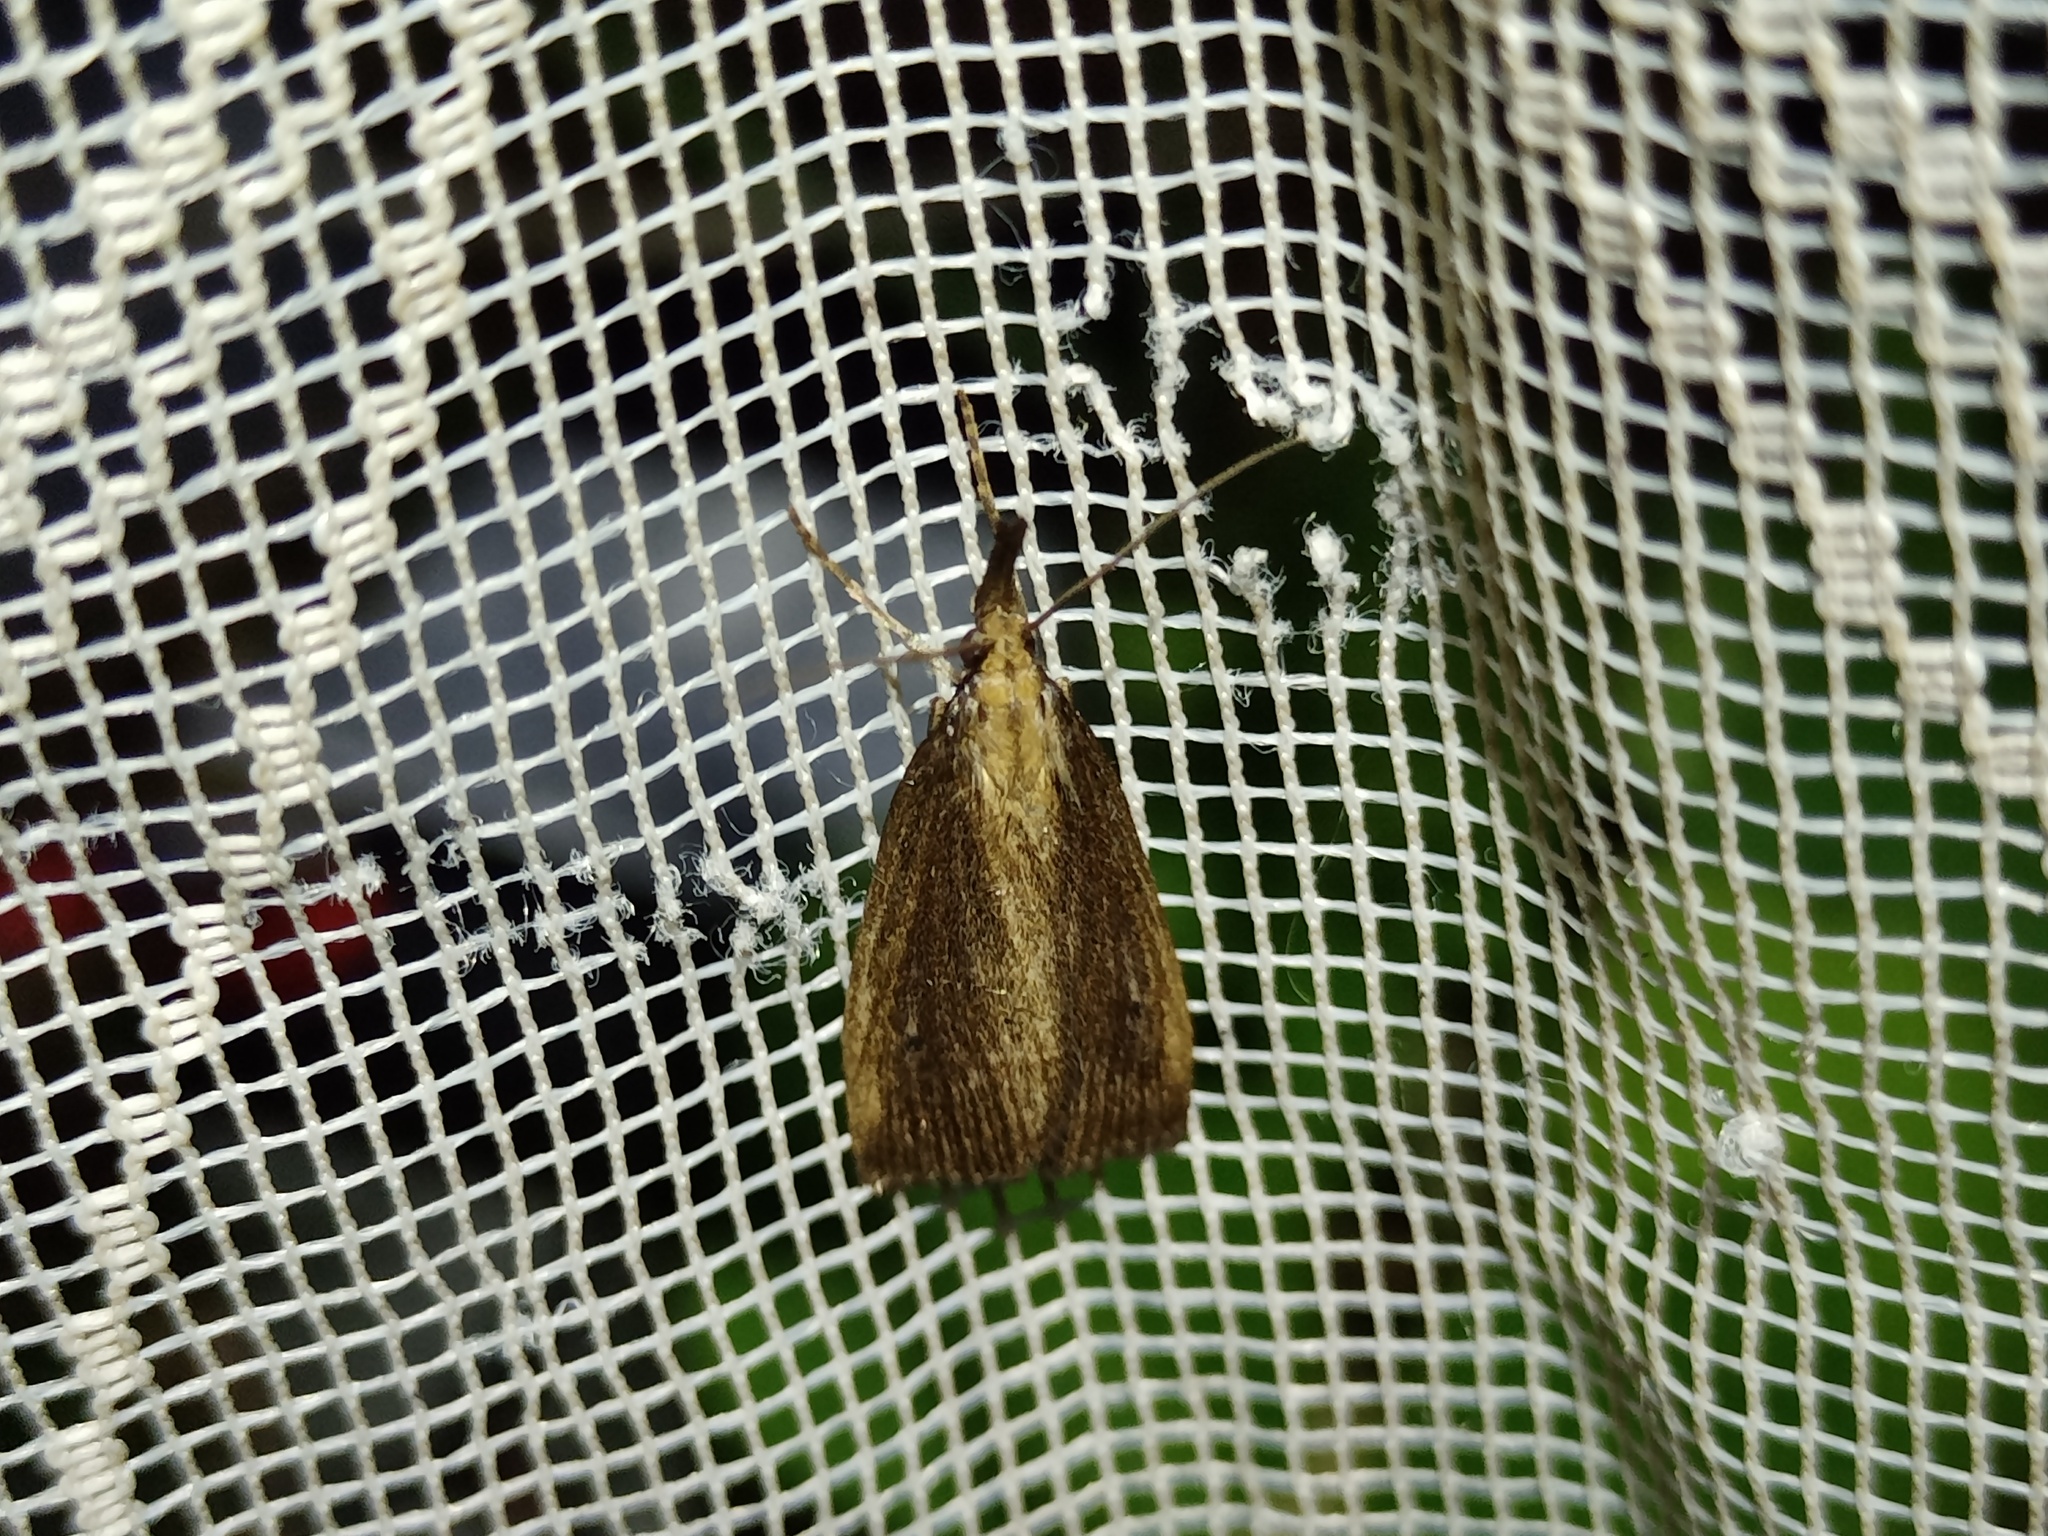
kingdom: Animalia
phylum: Arthropoda
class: Insecta
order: Lepidoptera
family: Crambidae
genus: Chilo
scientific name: Chilo phragmitella
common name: Reed veneer
